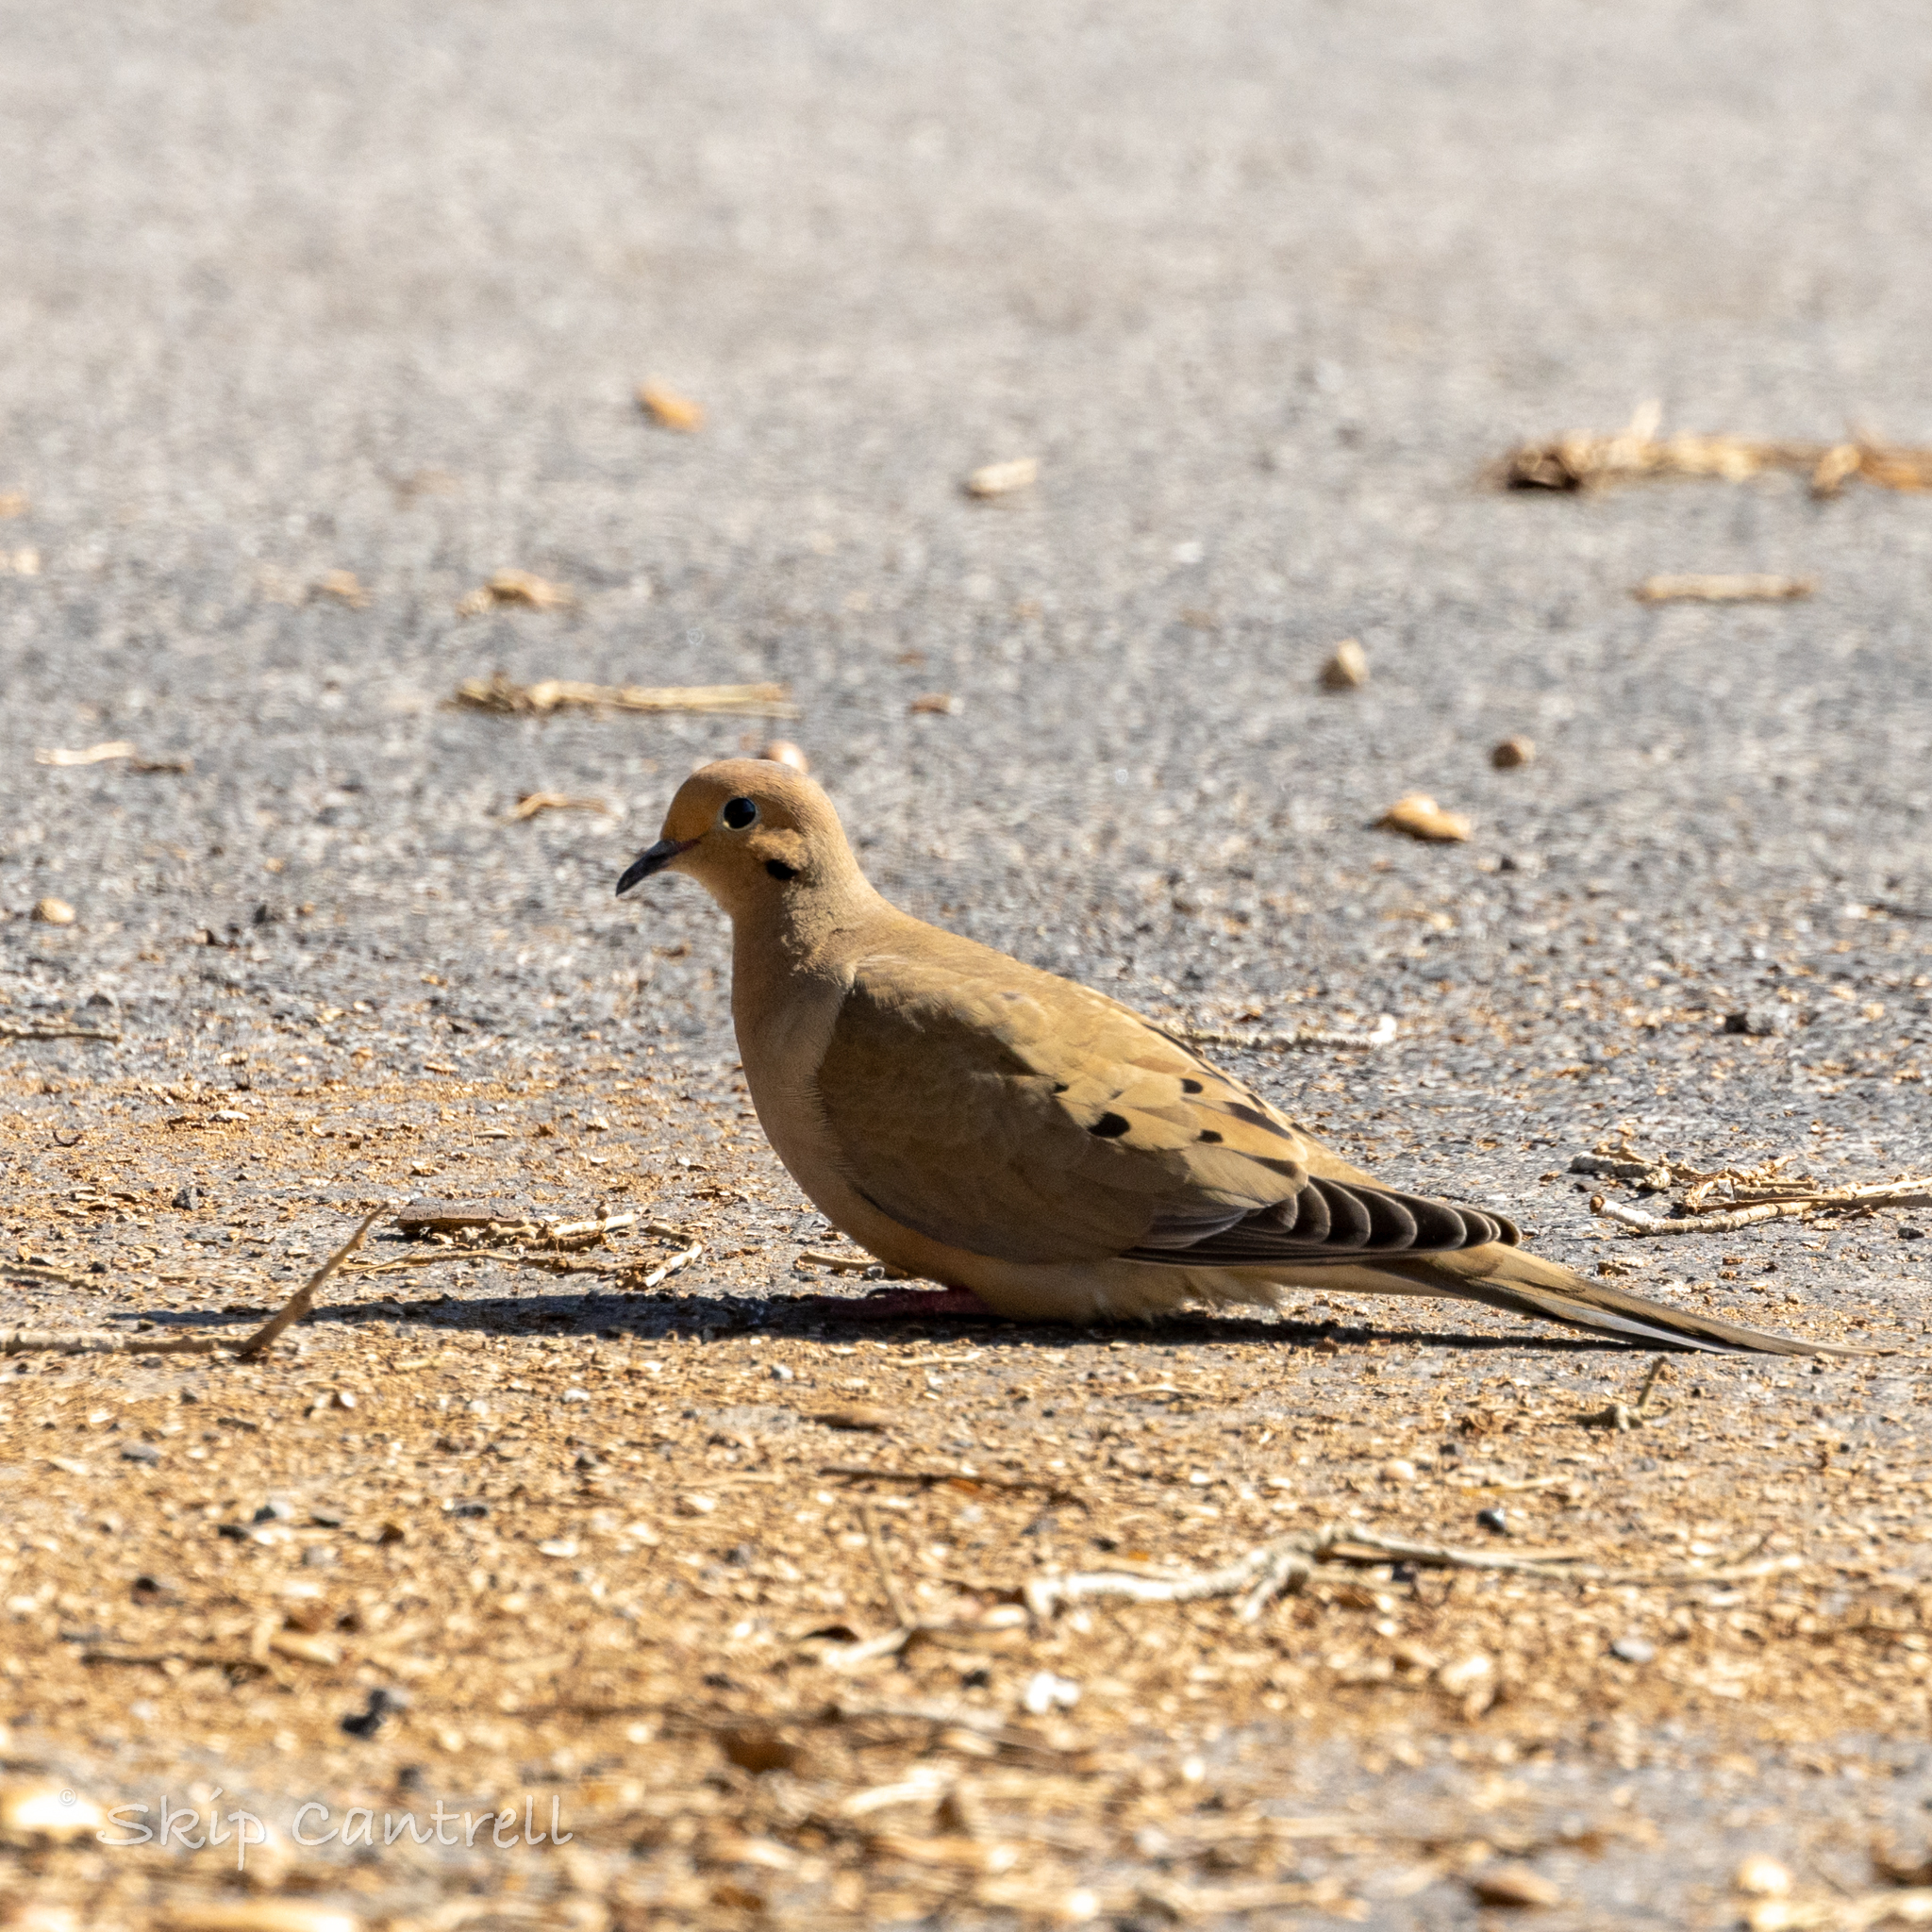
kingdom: Animalia
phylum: Chordata
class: Aves
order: Columbiformes
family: Columbidae
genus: Zenaida
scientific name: Zenaida macroura
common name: Mourning dove
